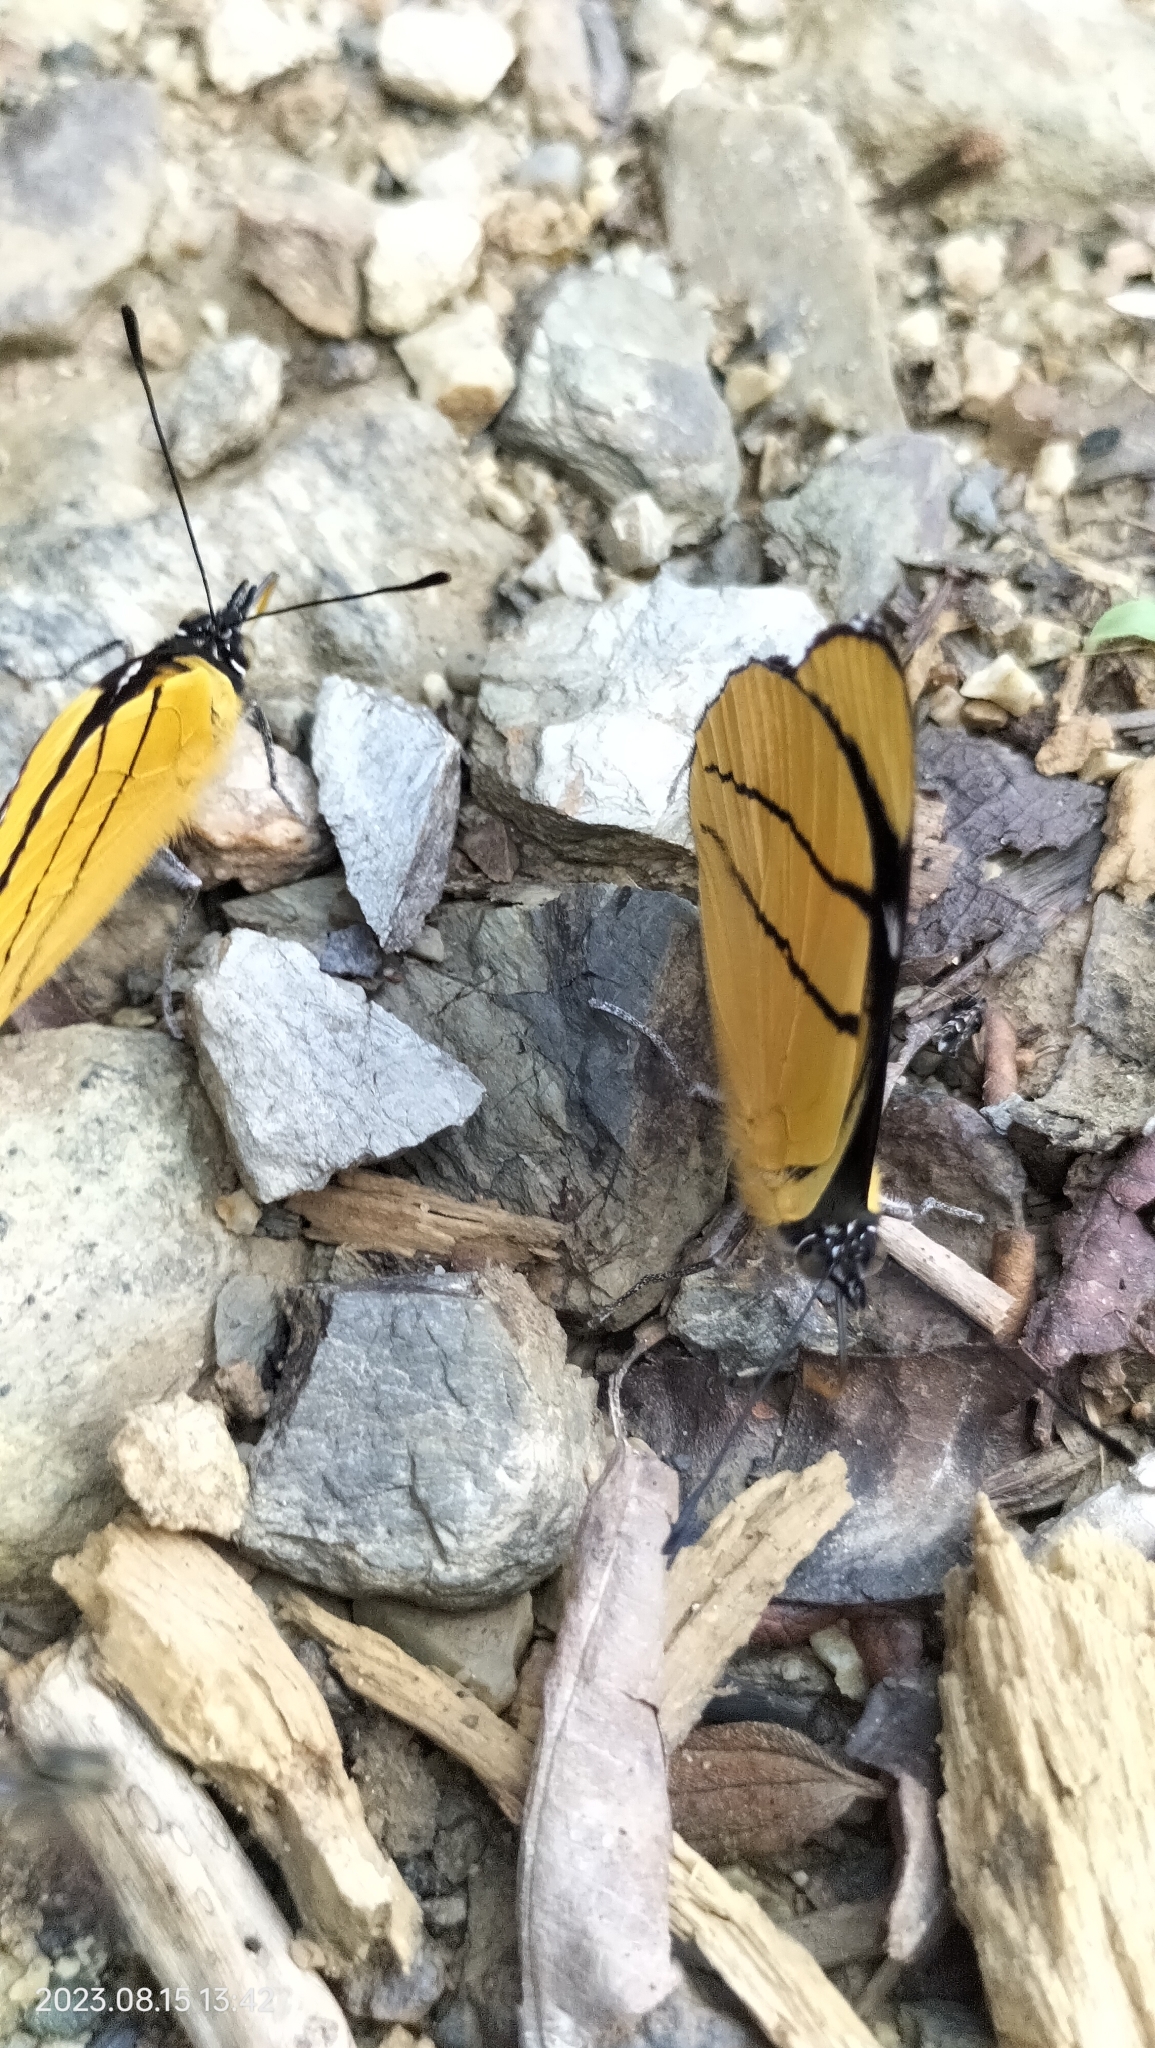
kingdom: Animalia
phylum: Arthropoda
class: Insecta
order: Lepidoptera
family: Nymphalidae
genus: Perisama
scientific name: Perisama oppelii
